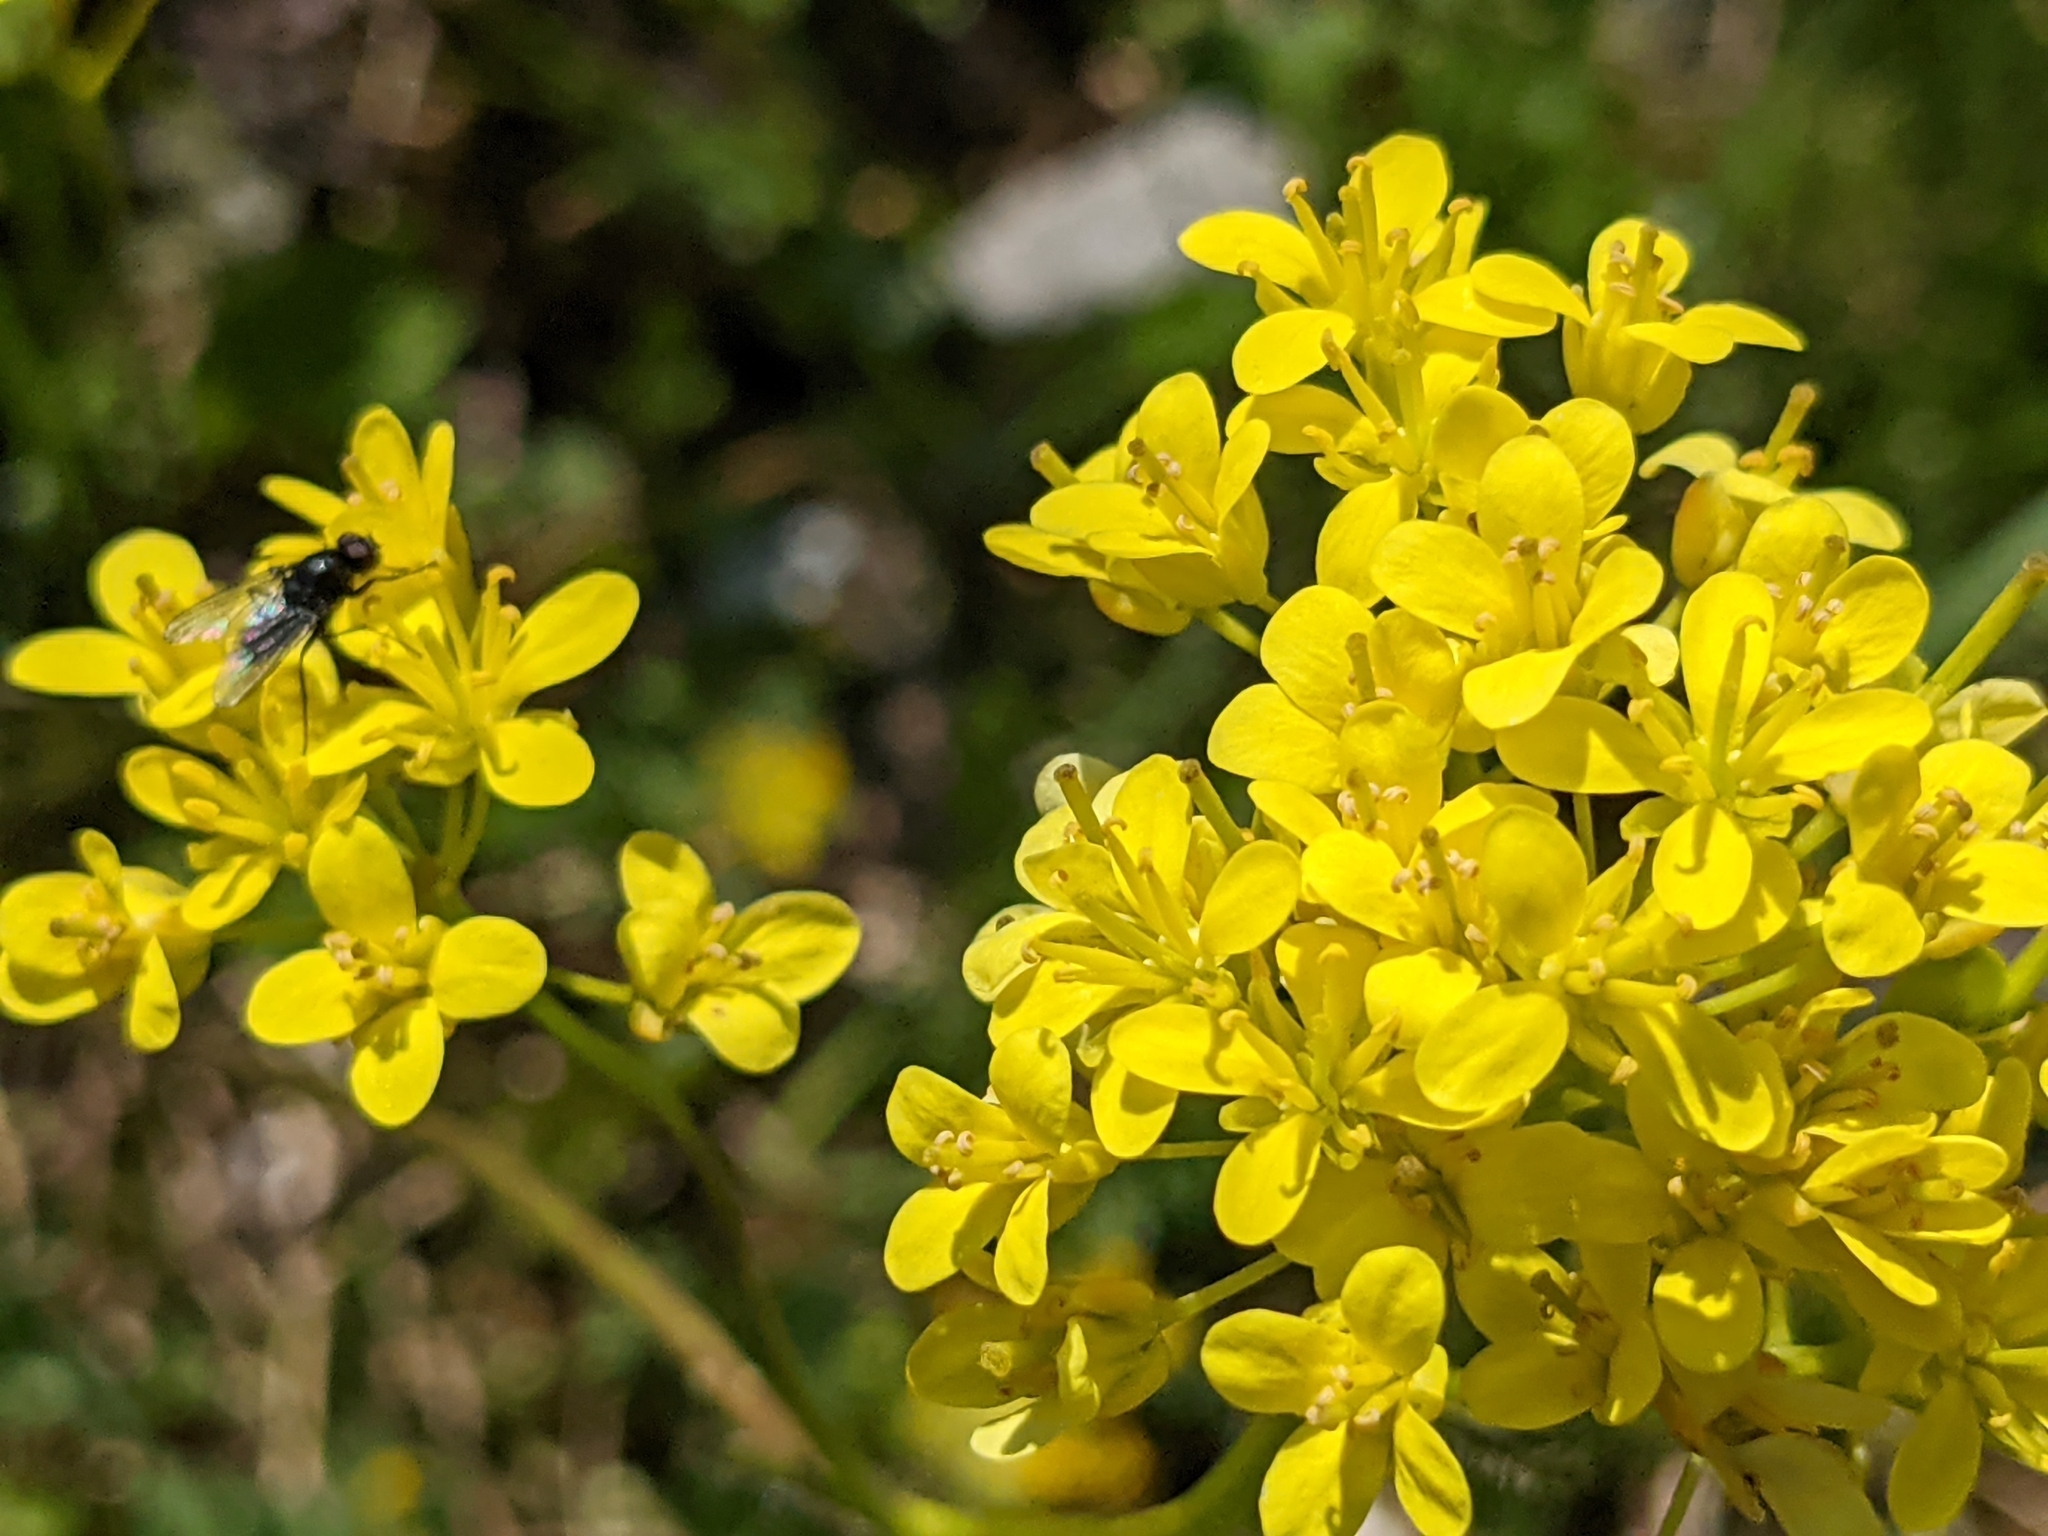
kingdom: Plantae
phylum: Tracheophyta
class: Magnoliopsida
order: Brassicales
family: Brassicaceae
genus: Biscutella
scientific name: Biscutella laevigata
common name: Buckler mustard
